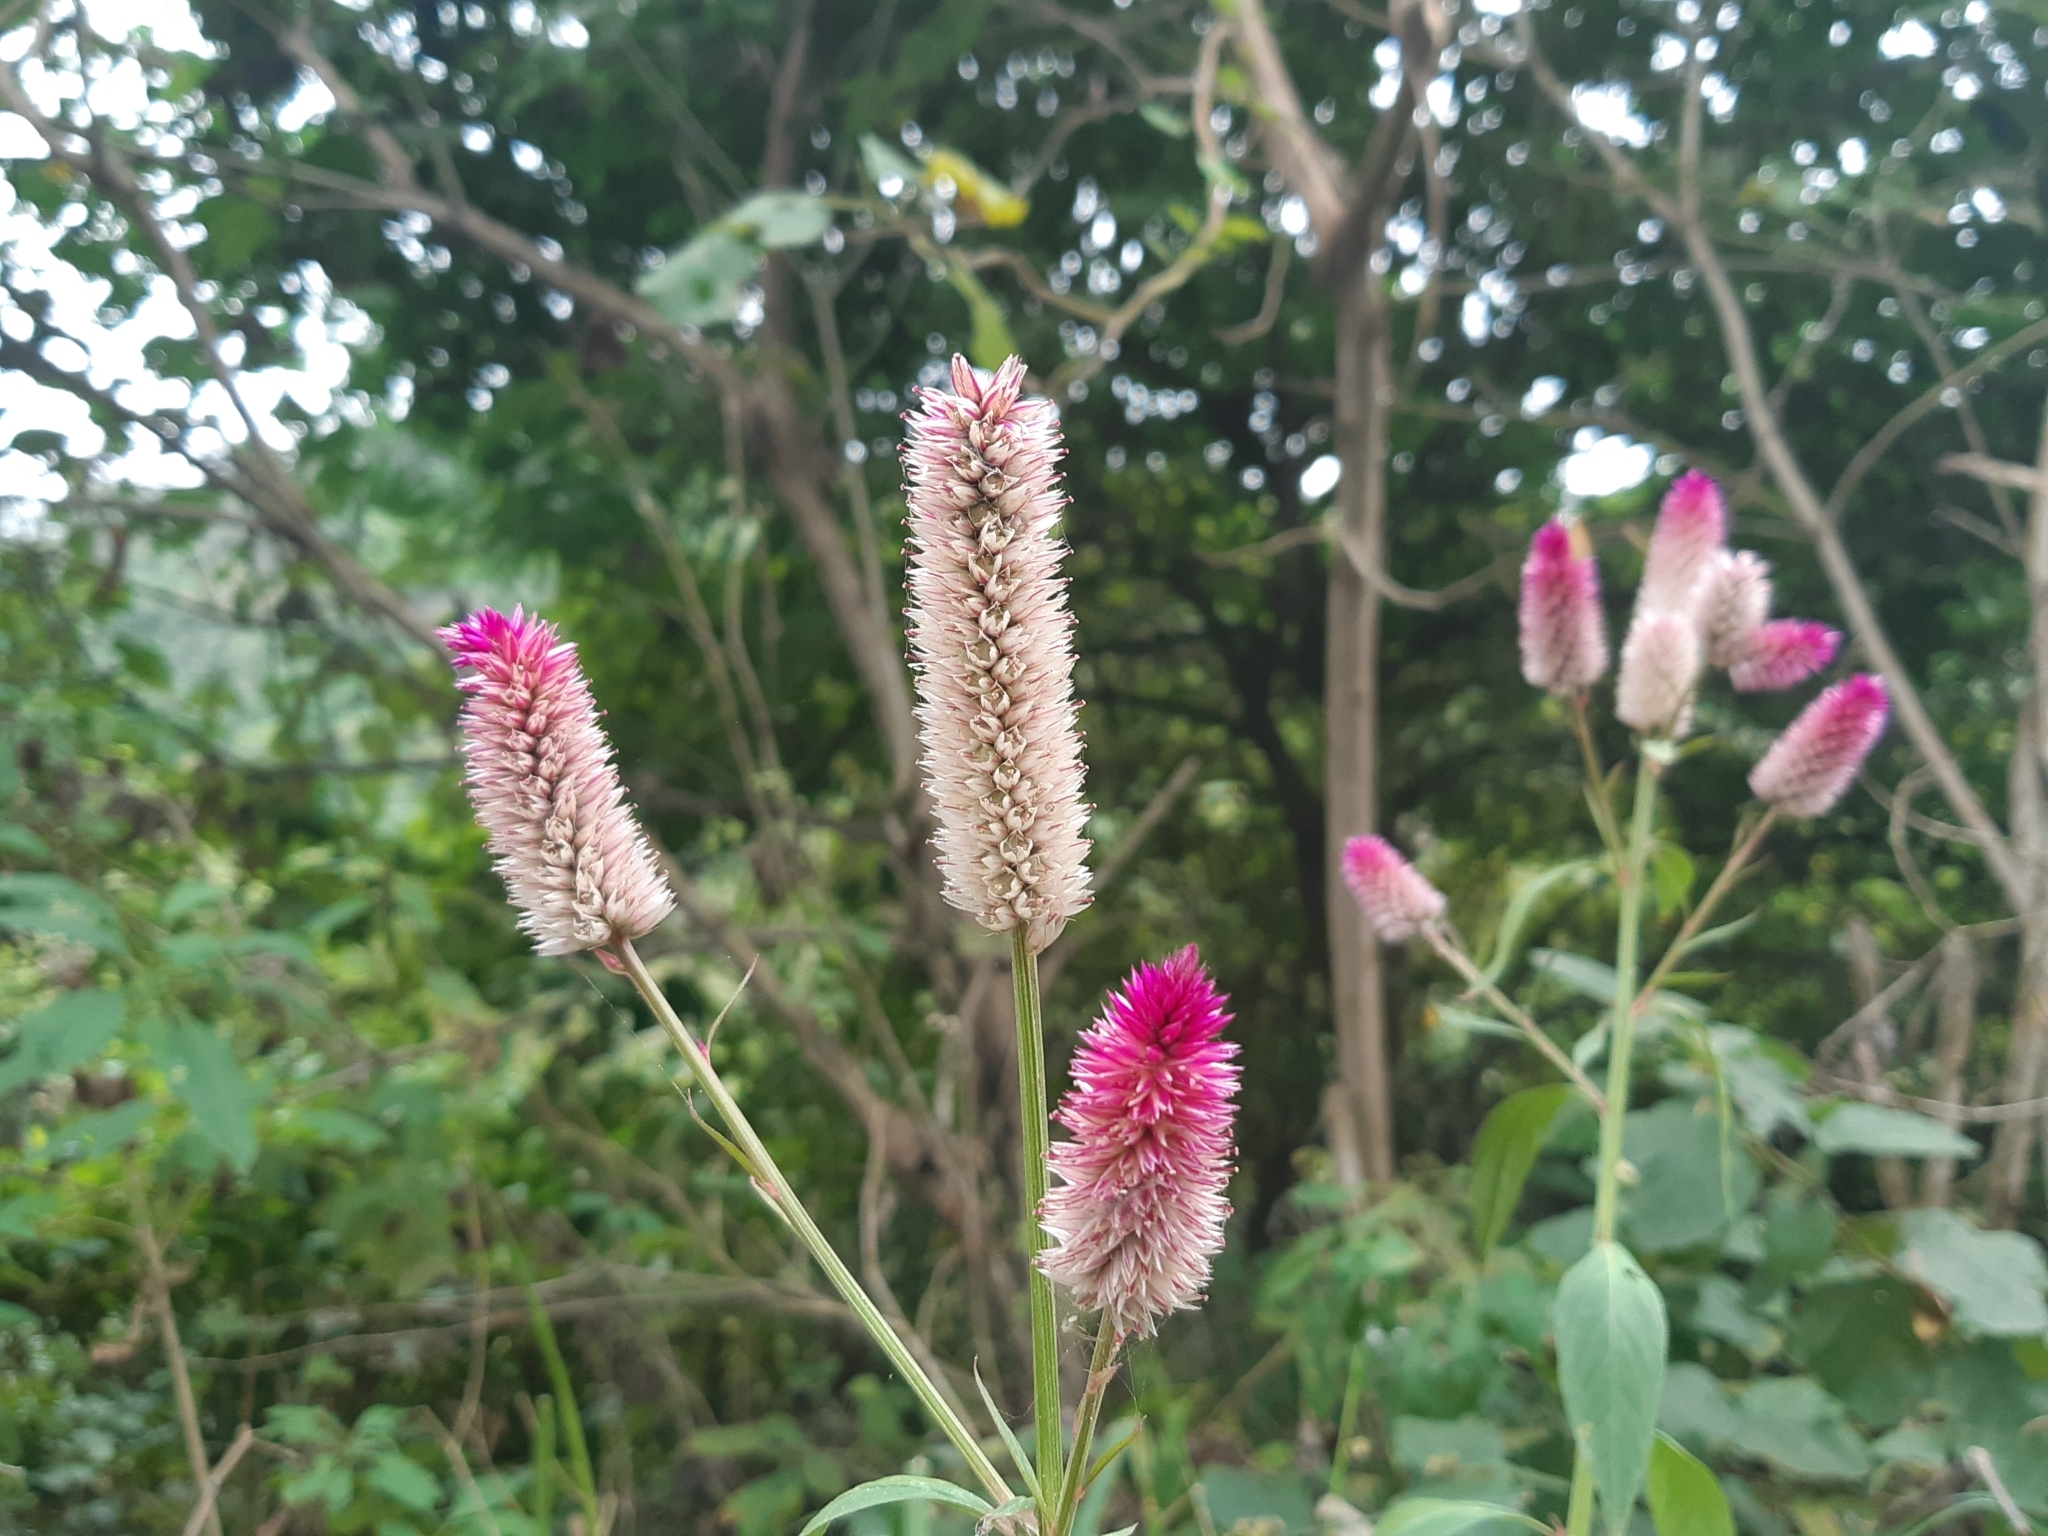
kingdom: Plantae
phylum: Tracheophyta
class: Magnoliopsida
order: Caryophyllales
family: Amaranthaceae
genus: Celosia
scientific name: Celosia argentea
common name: Feather cockscomb
